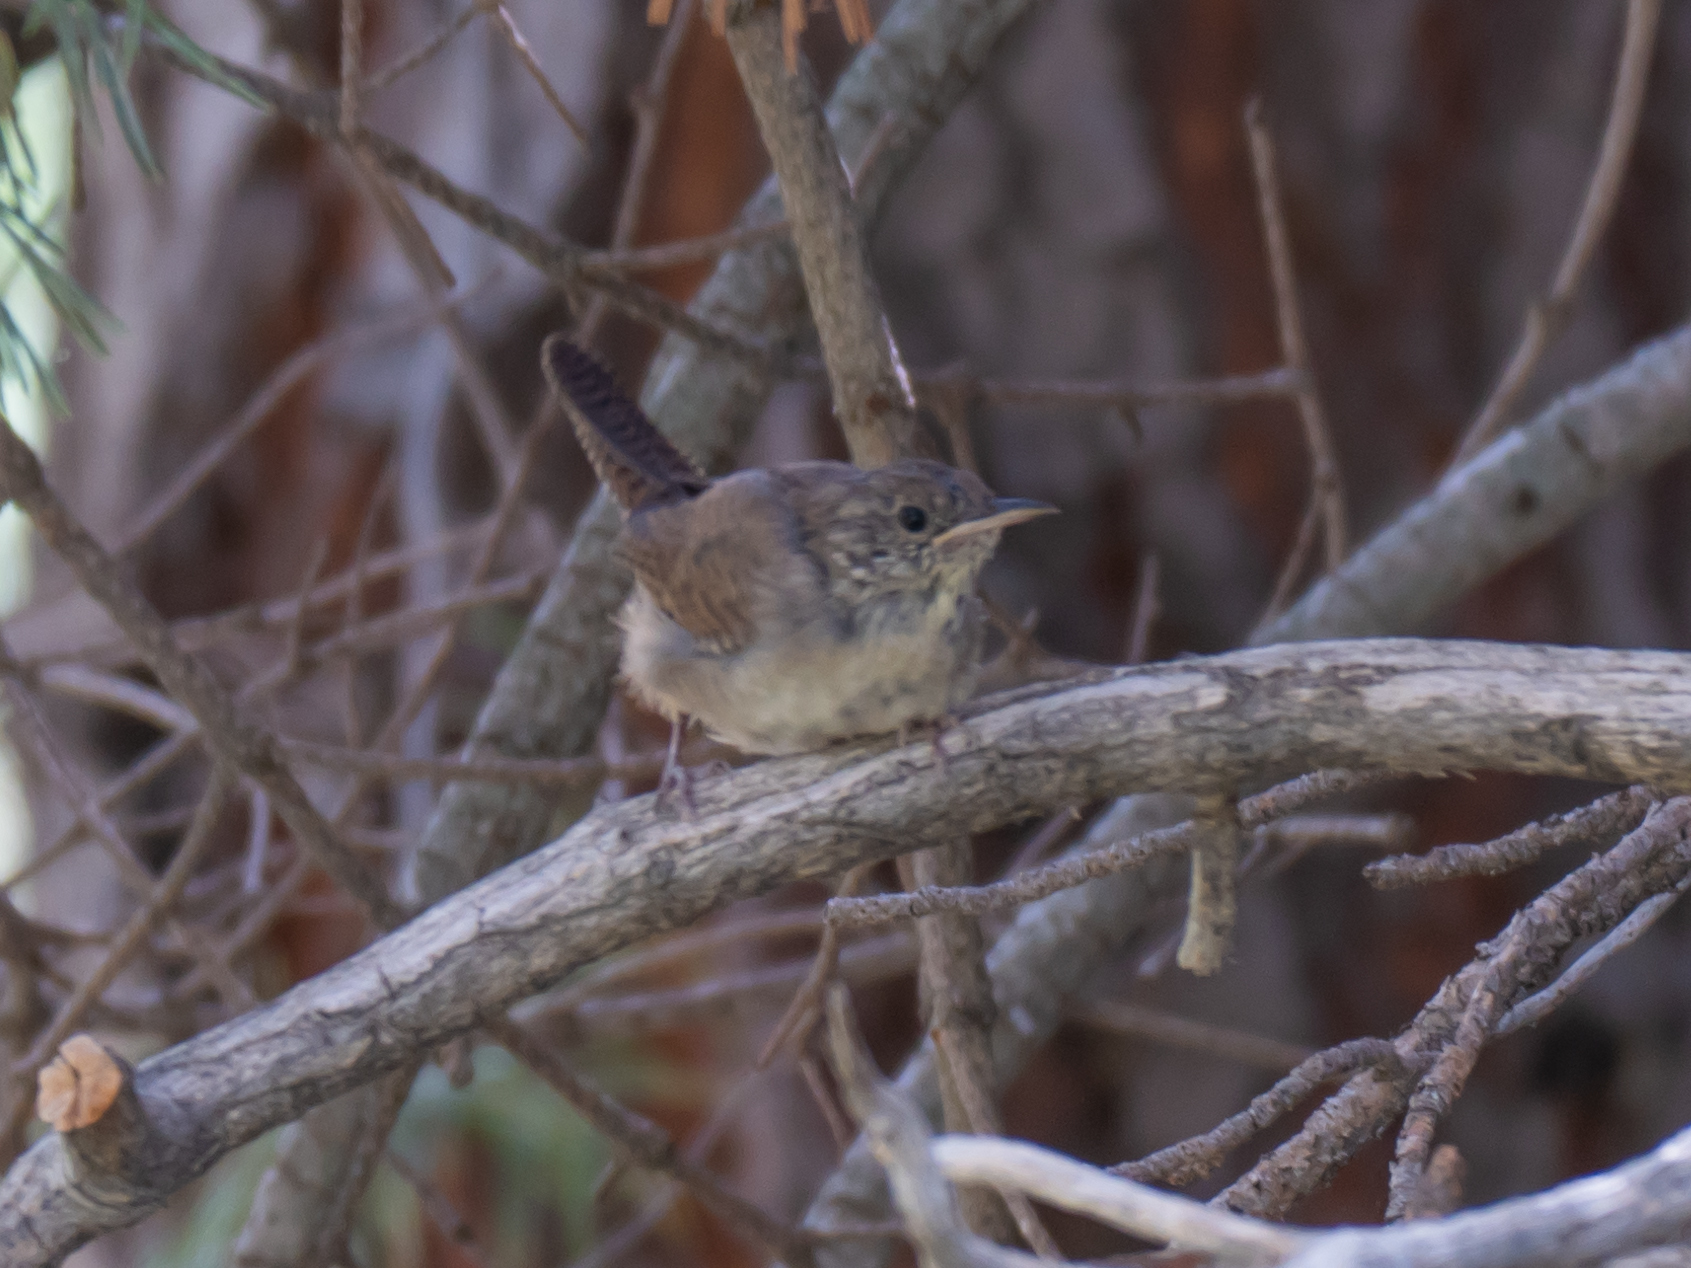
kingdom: Animalia
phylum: Chordata
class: Aves
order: Passeriformes
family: Troglodytidae
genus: Troglodytes
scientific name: Troglodytes aedon
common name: House wren
